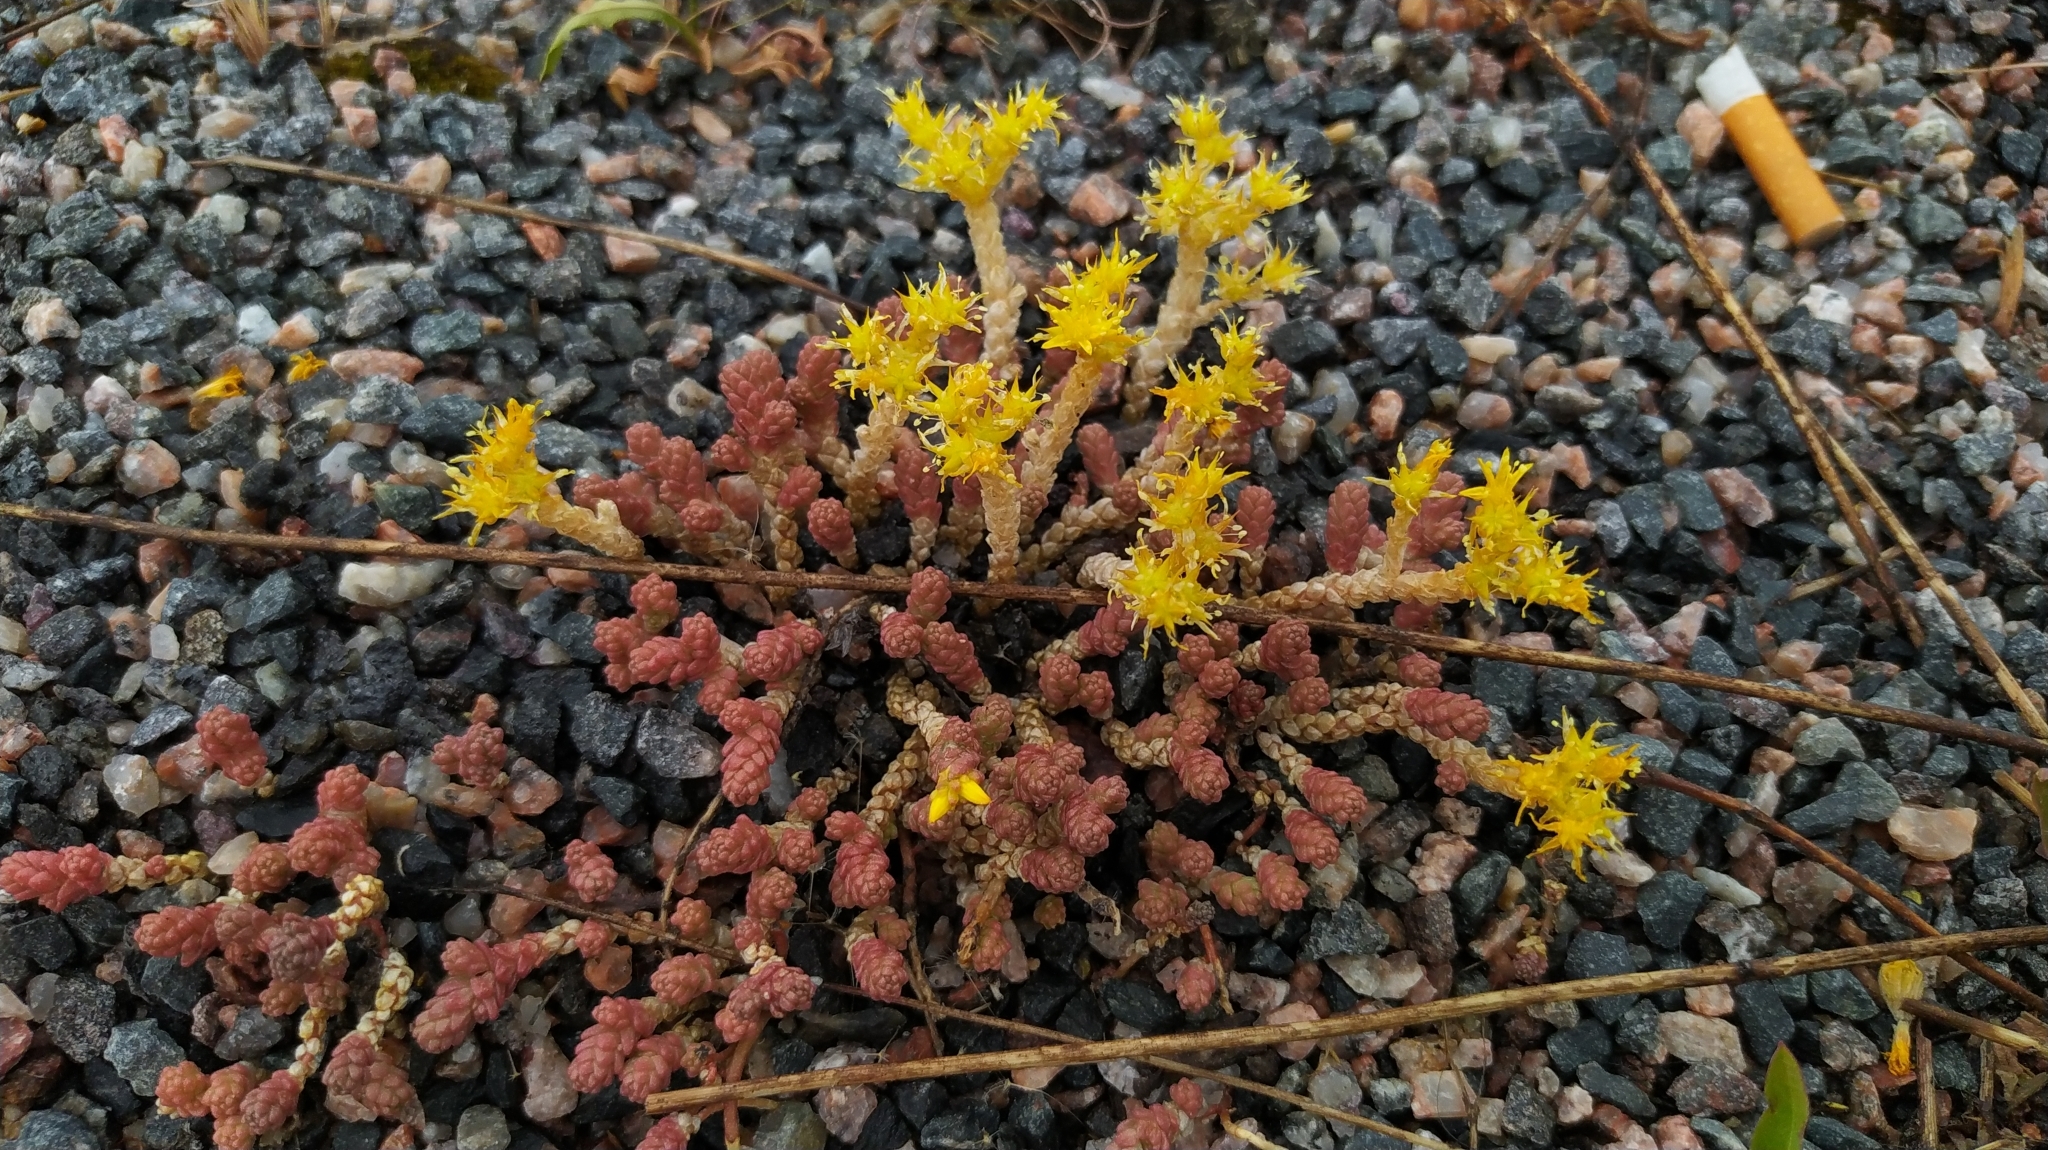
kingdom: Plantae
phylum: Tracheophyta
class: Magnoliopsida
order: Saxifragales
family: Crassulaceae
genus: Sedum
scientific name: Sedum acre
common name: Biting stonecrop
